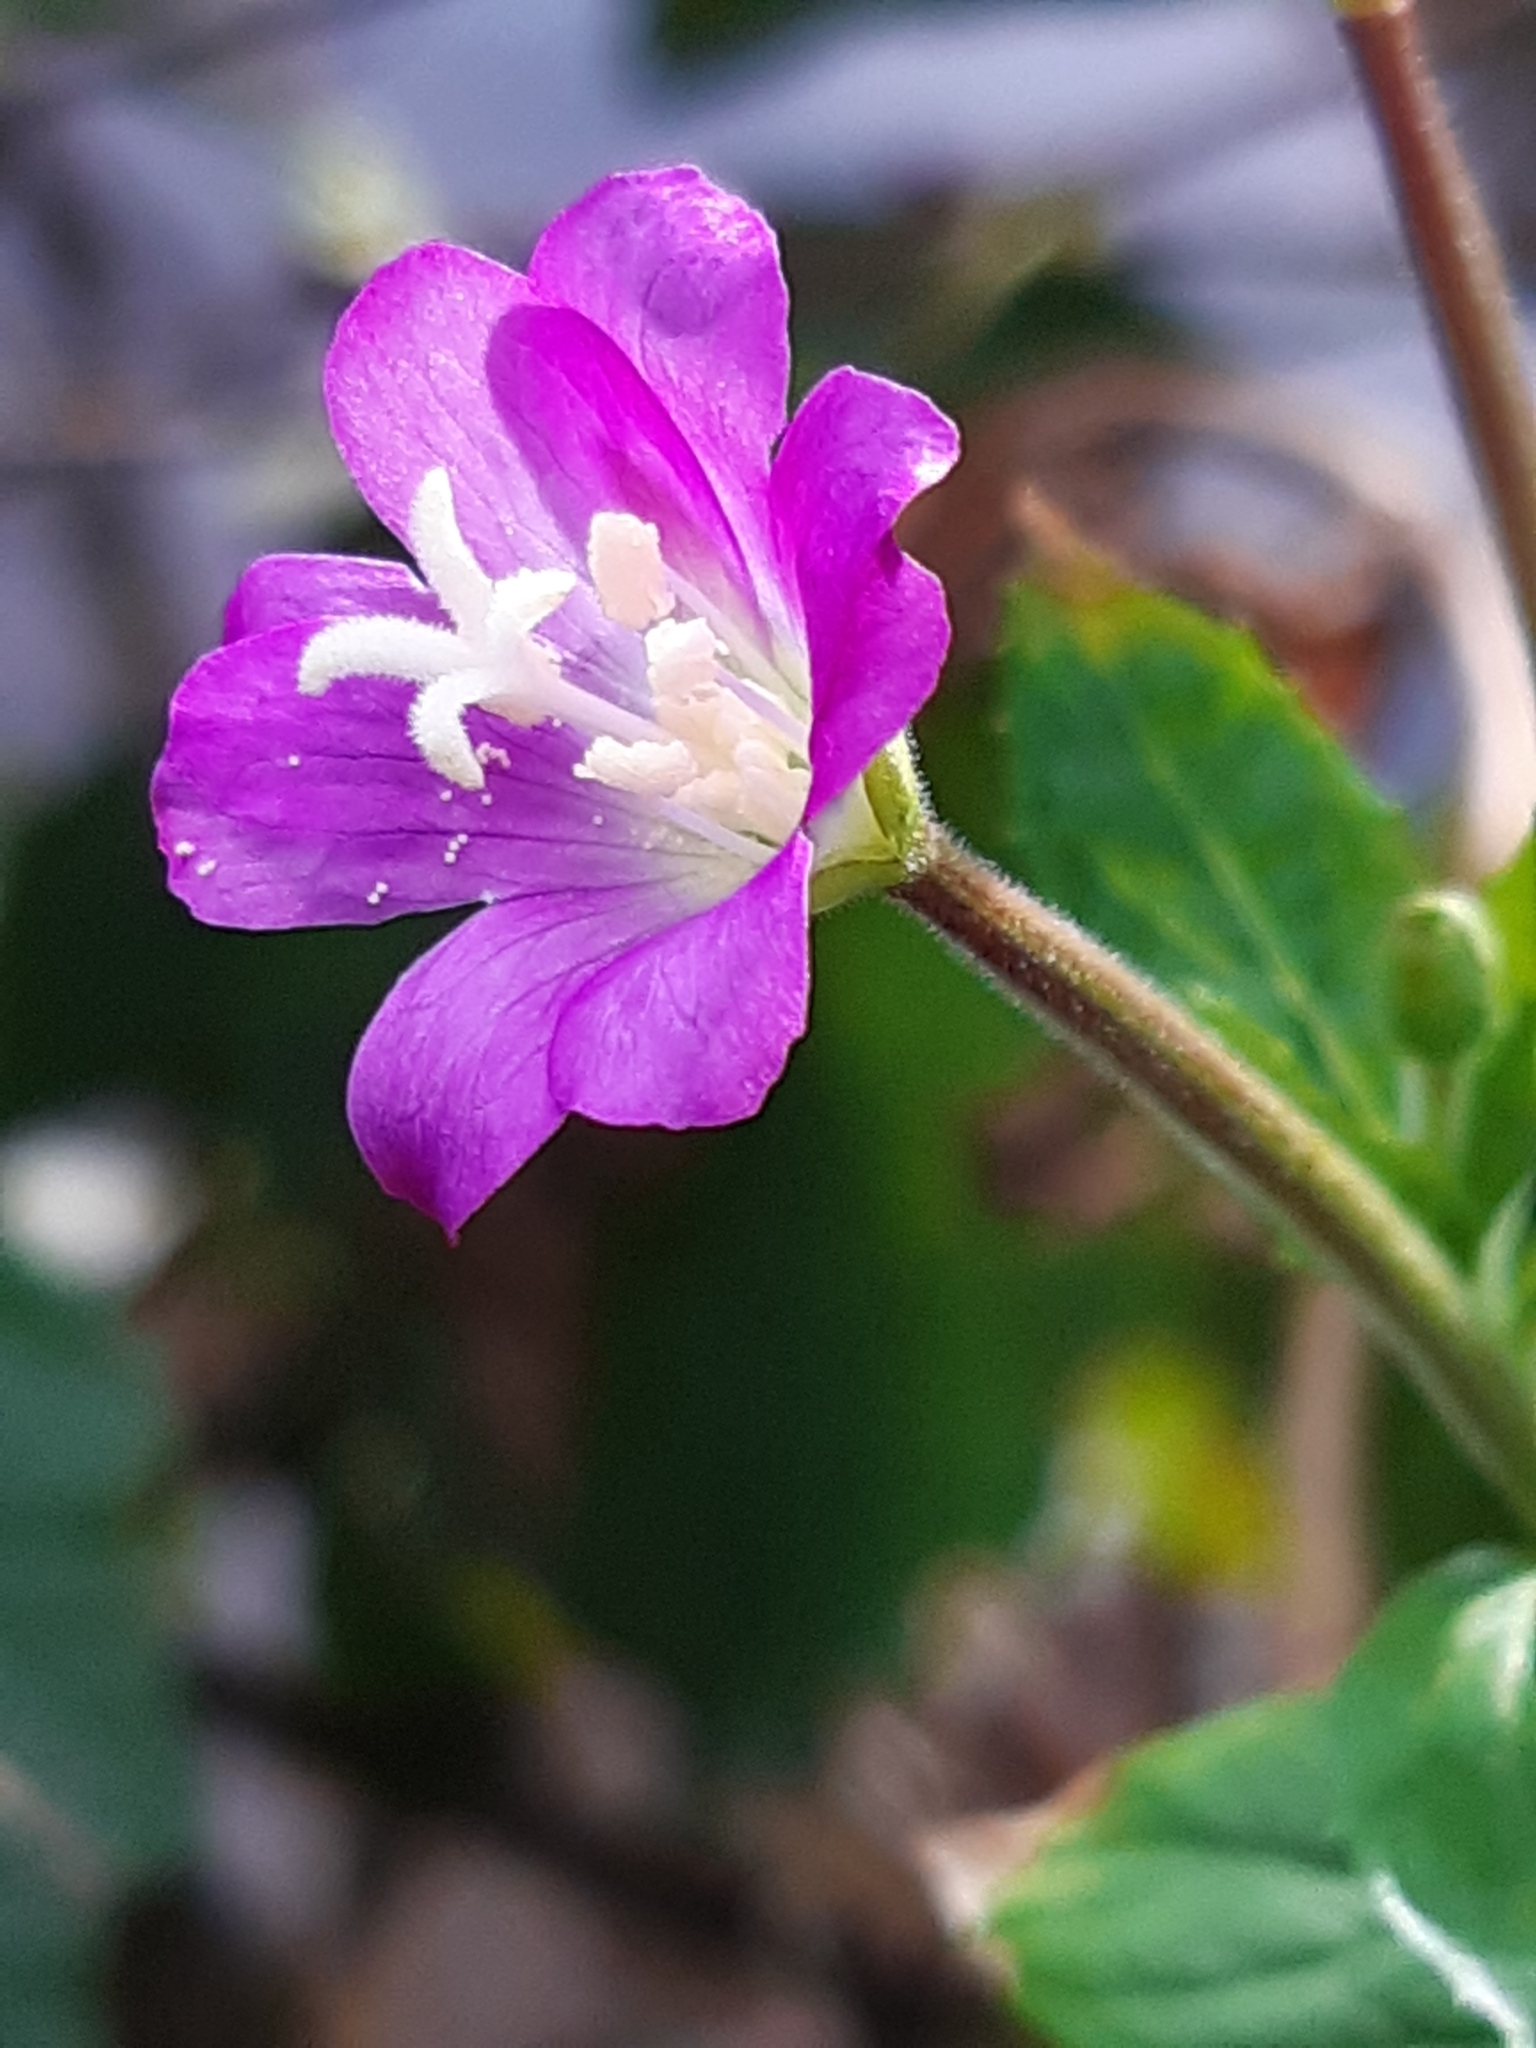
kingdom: Plantae
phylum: Tracheophyta
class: Magnoliopsida
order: Myrtales
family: Onagraceae
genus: Epilobium
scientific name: Epilobium hirsutum
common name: Great willowherb
